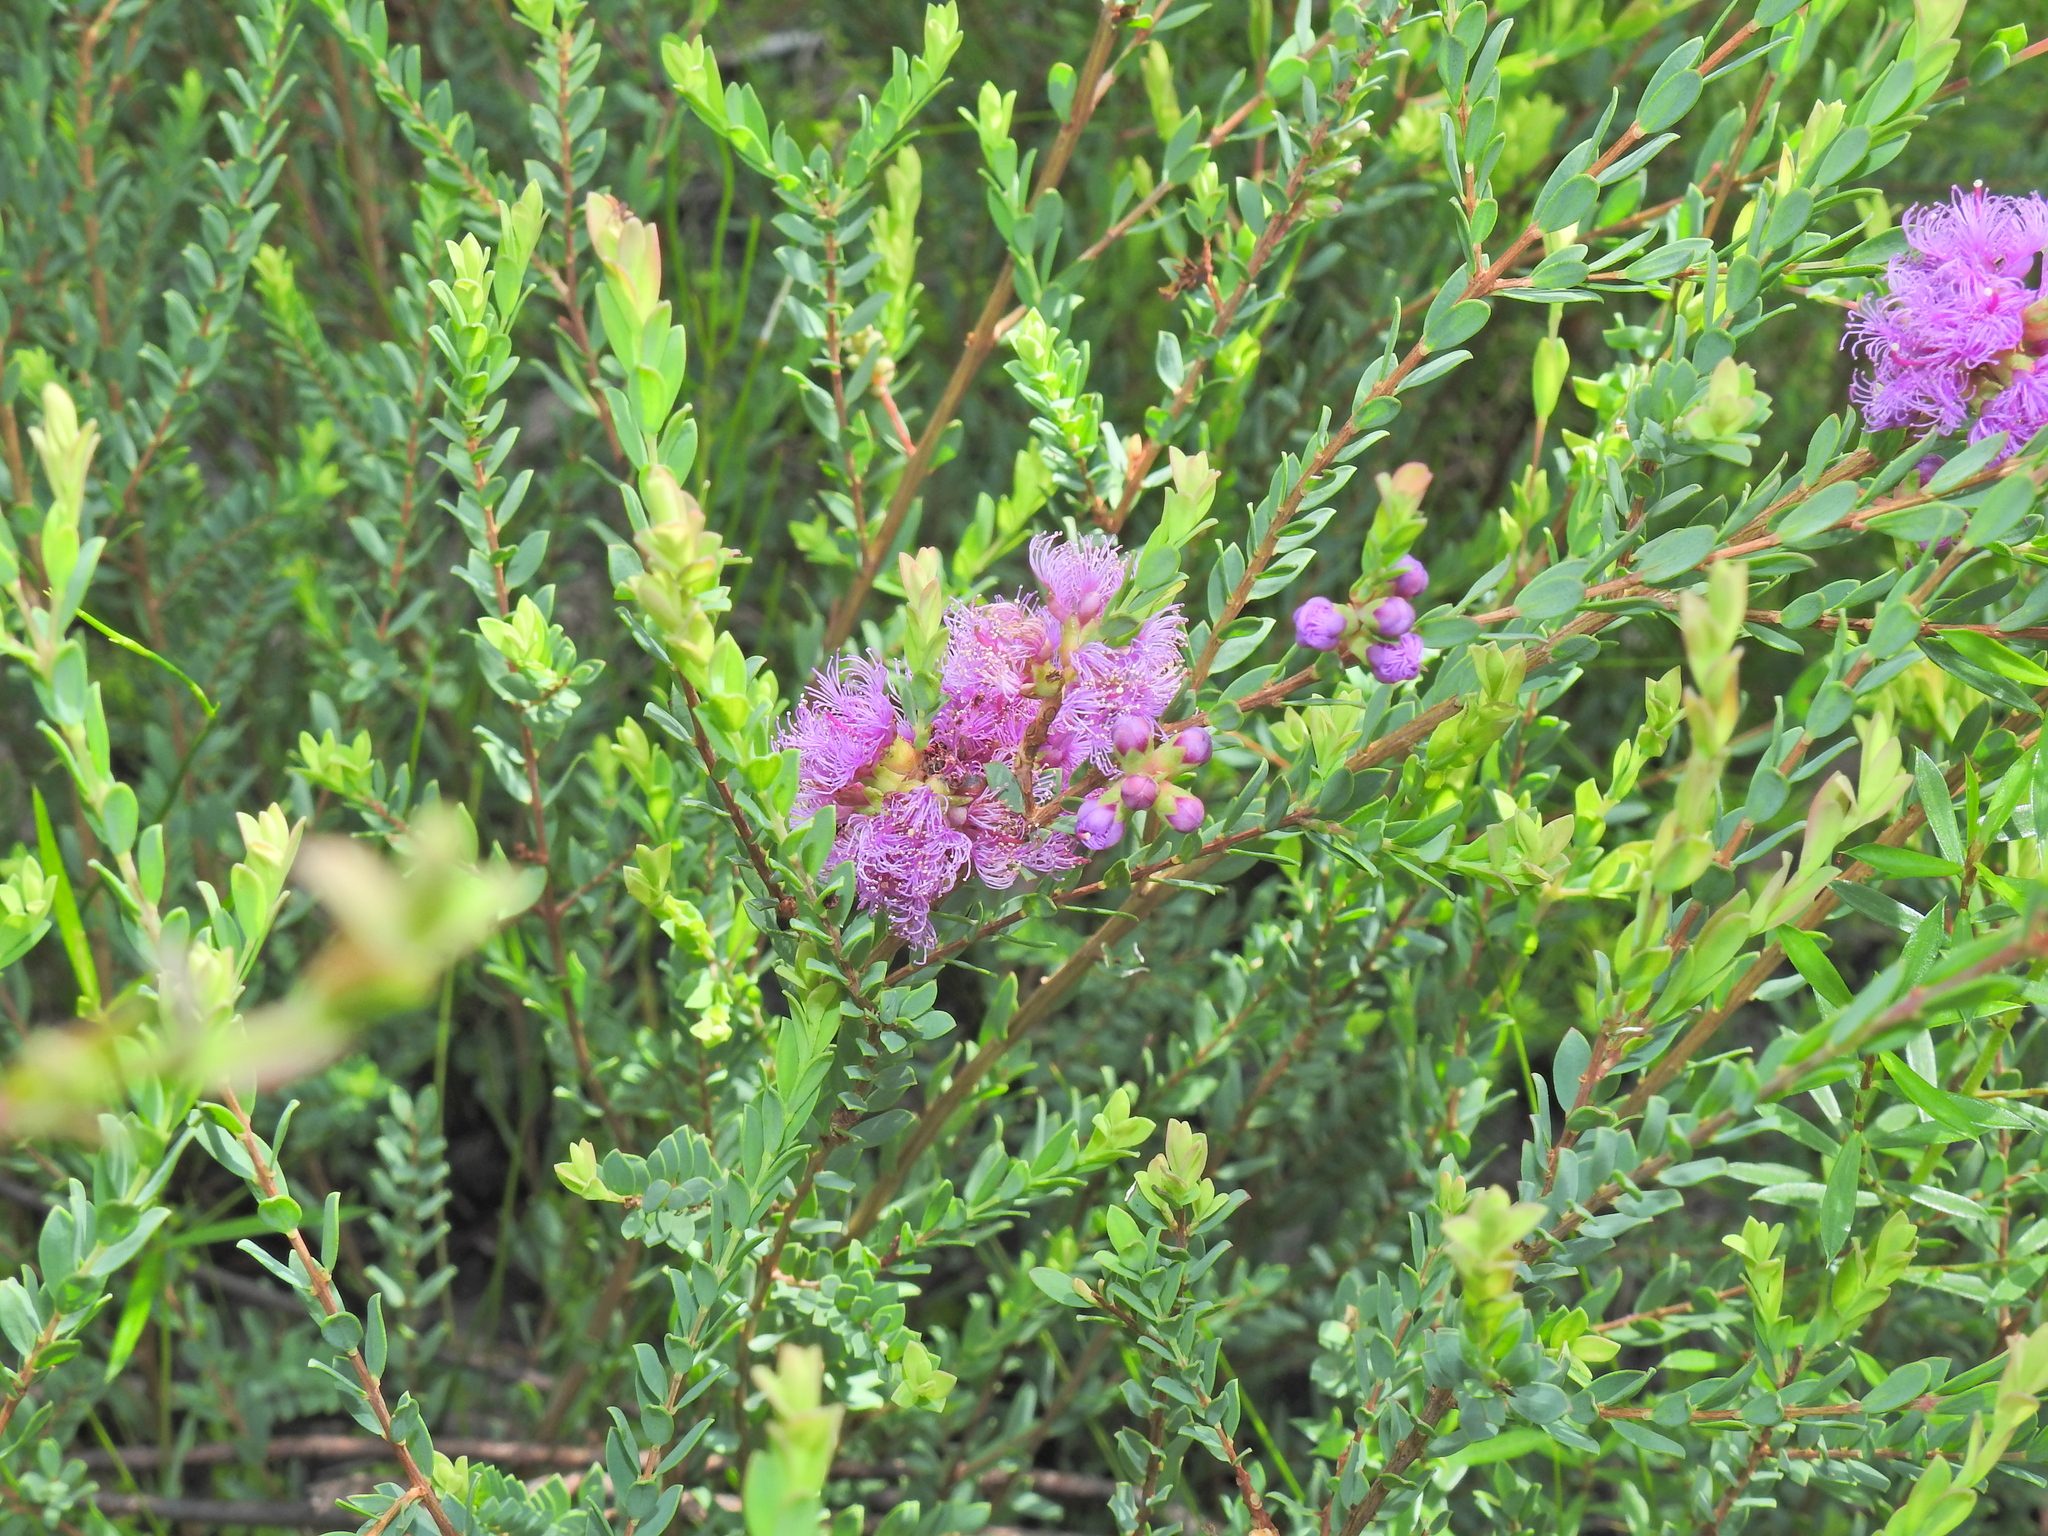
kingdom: Plantae
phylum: Tracheophyta
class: Magnoliopsida
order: Myrtales
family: Myrtaceae
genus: Melaleuca
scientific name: Melaleuca thymifolia
